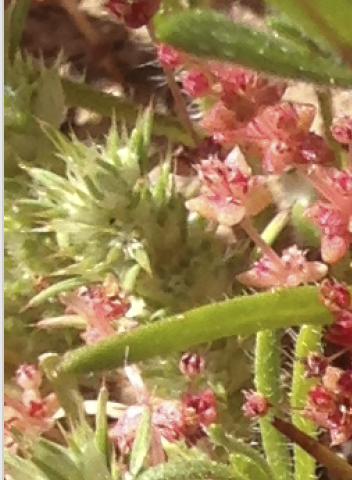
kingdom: Plantae
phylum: Tracheophyta
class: Magnoliopsida
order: Caryophyllales
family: Caryophyllaceae
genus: Cardionema
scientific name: Cardionema ramosissima
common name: Sandcarpet
